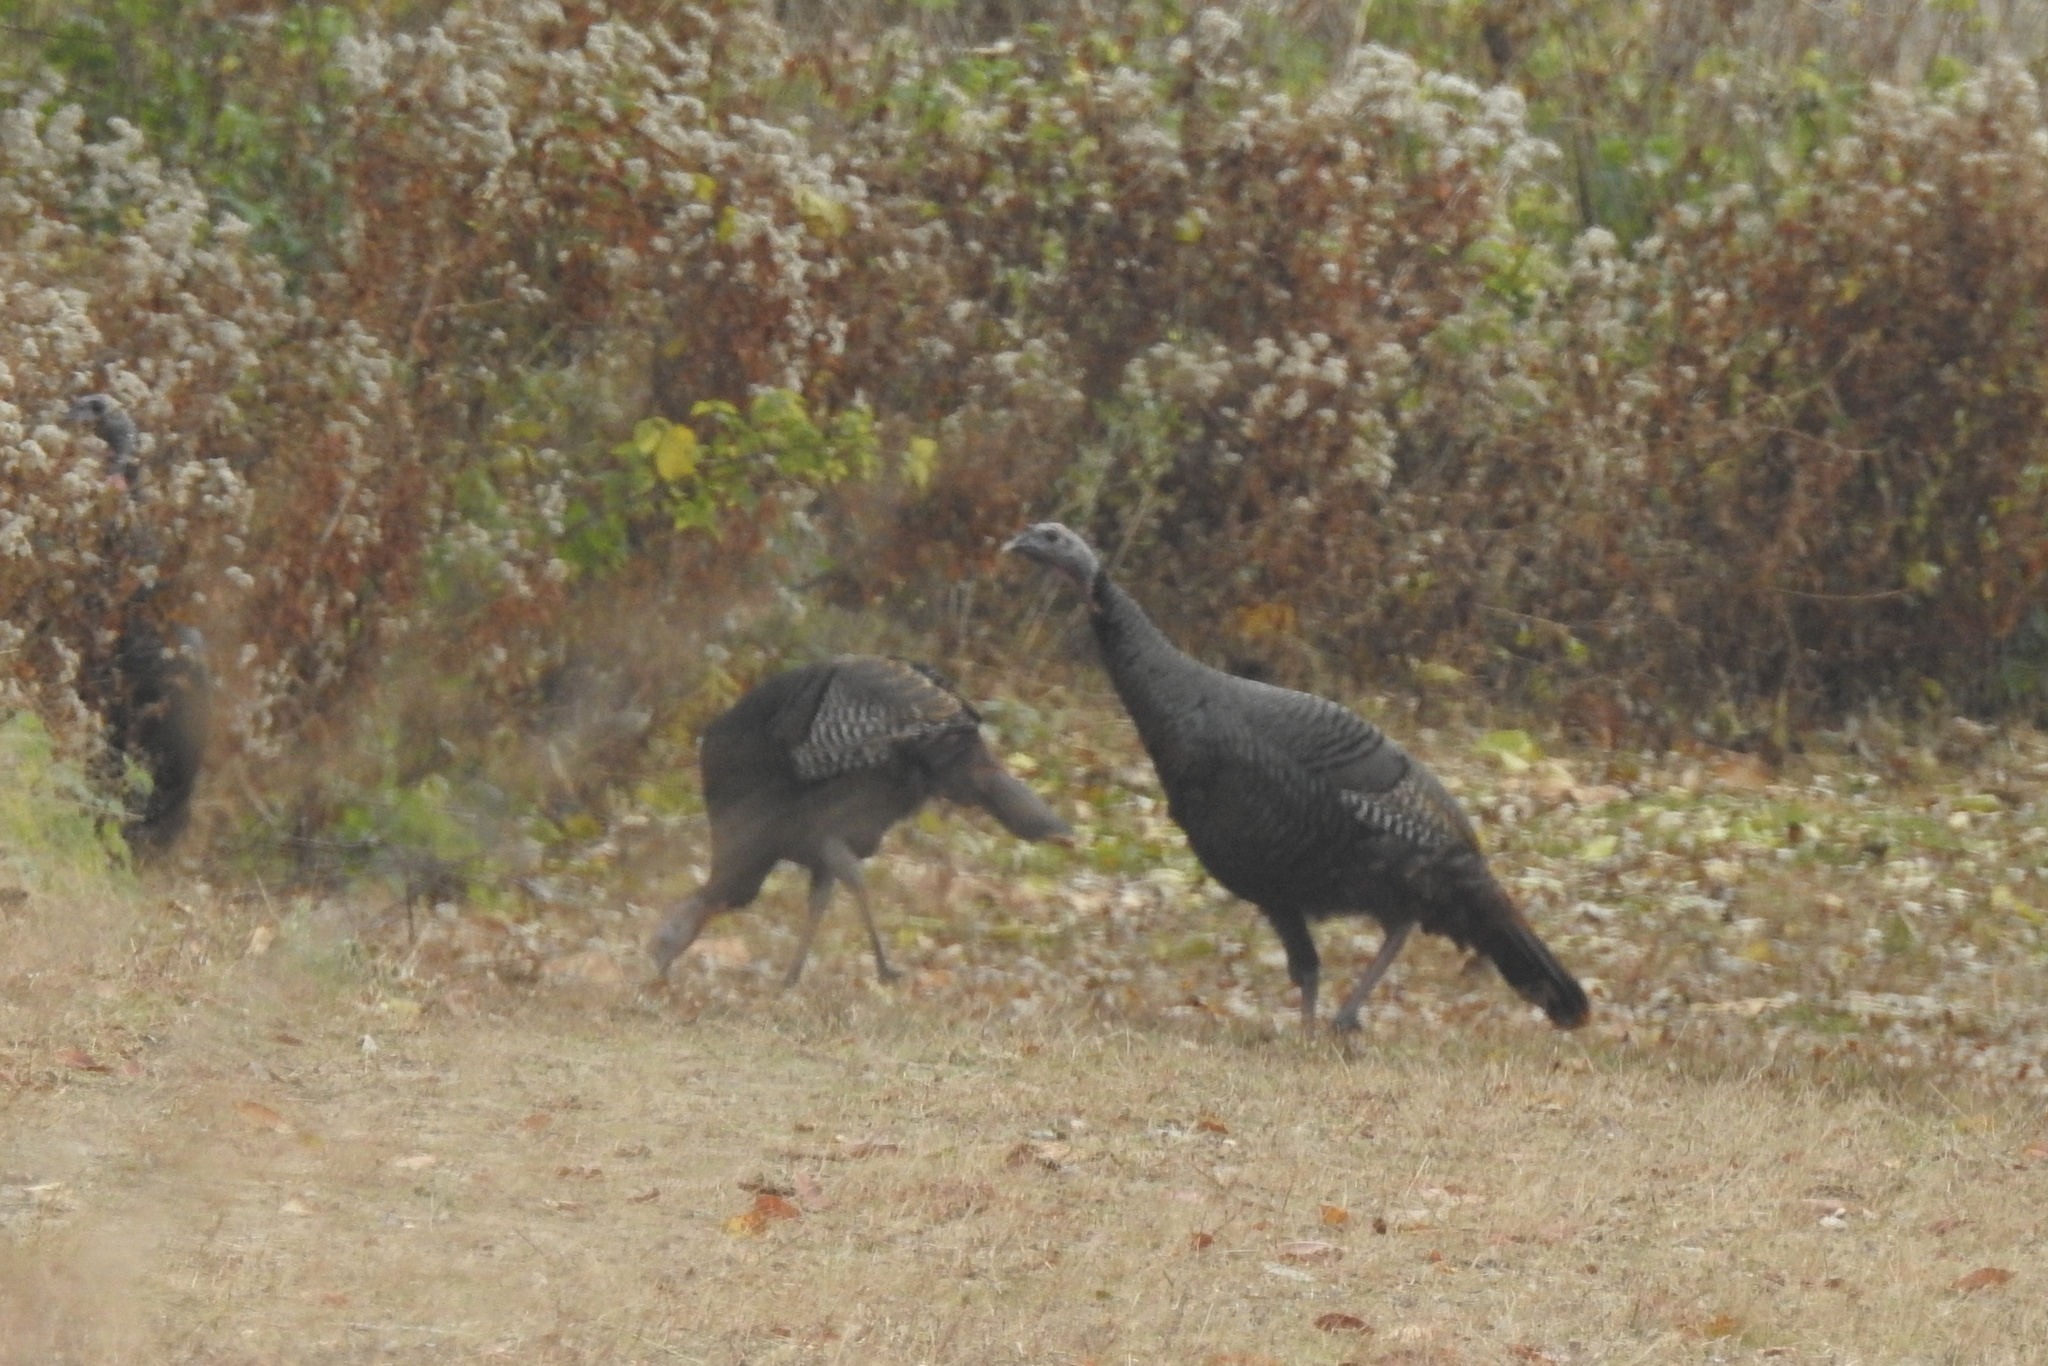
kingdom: Animalia
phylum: Chordata
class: Aves
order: Galliformes
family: Phasianidae
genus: Meleagris
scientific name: Meleagris gallopavo
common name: Wild turkey
